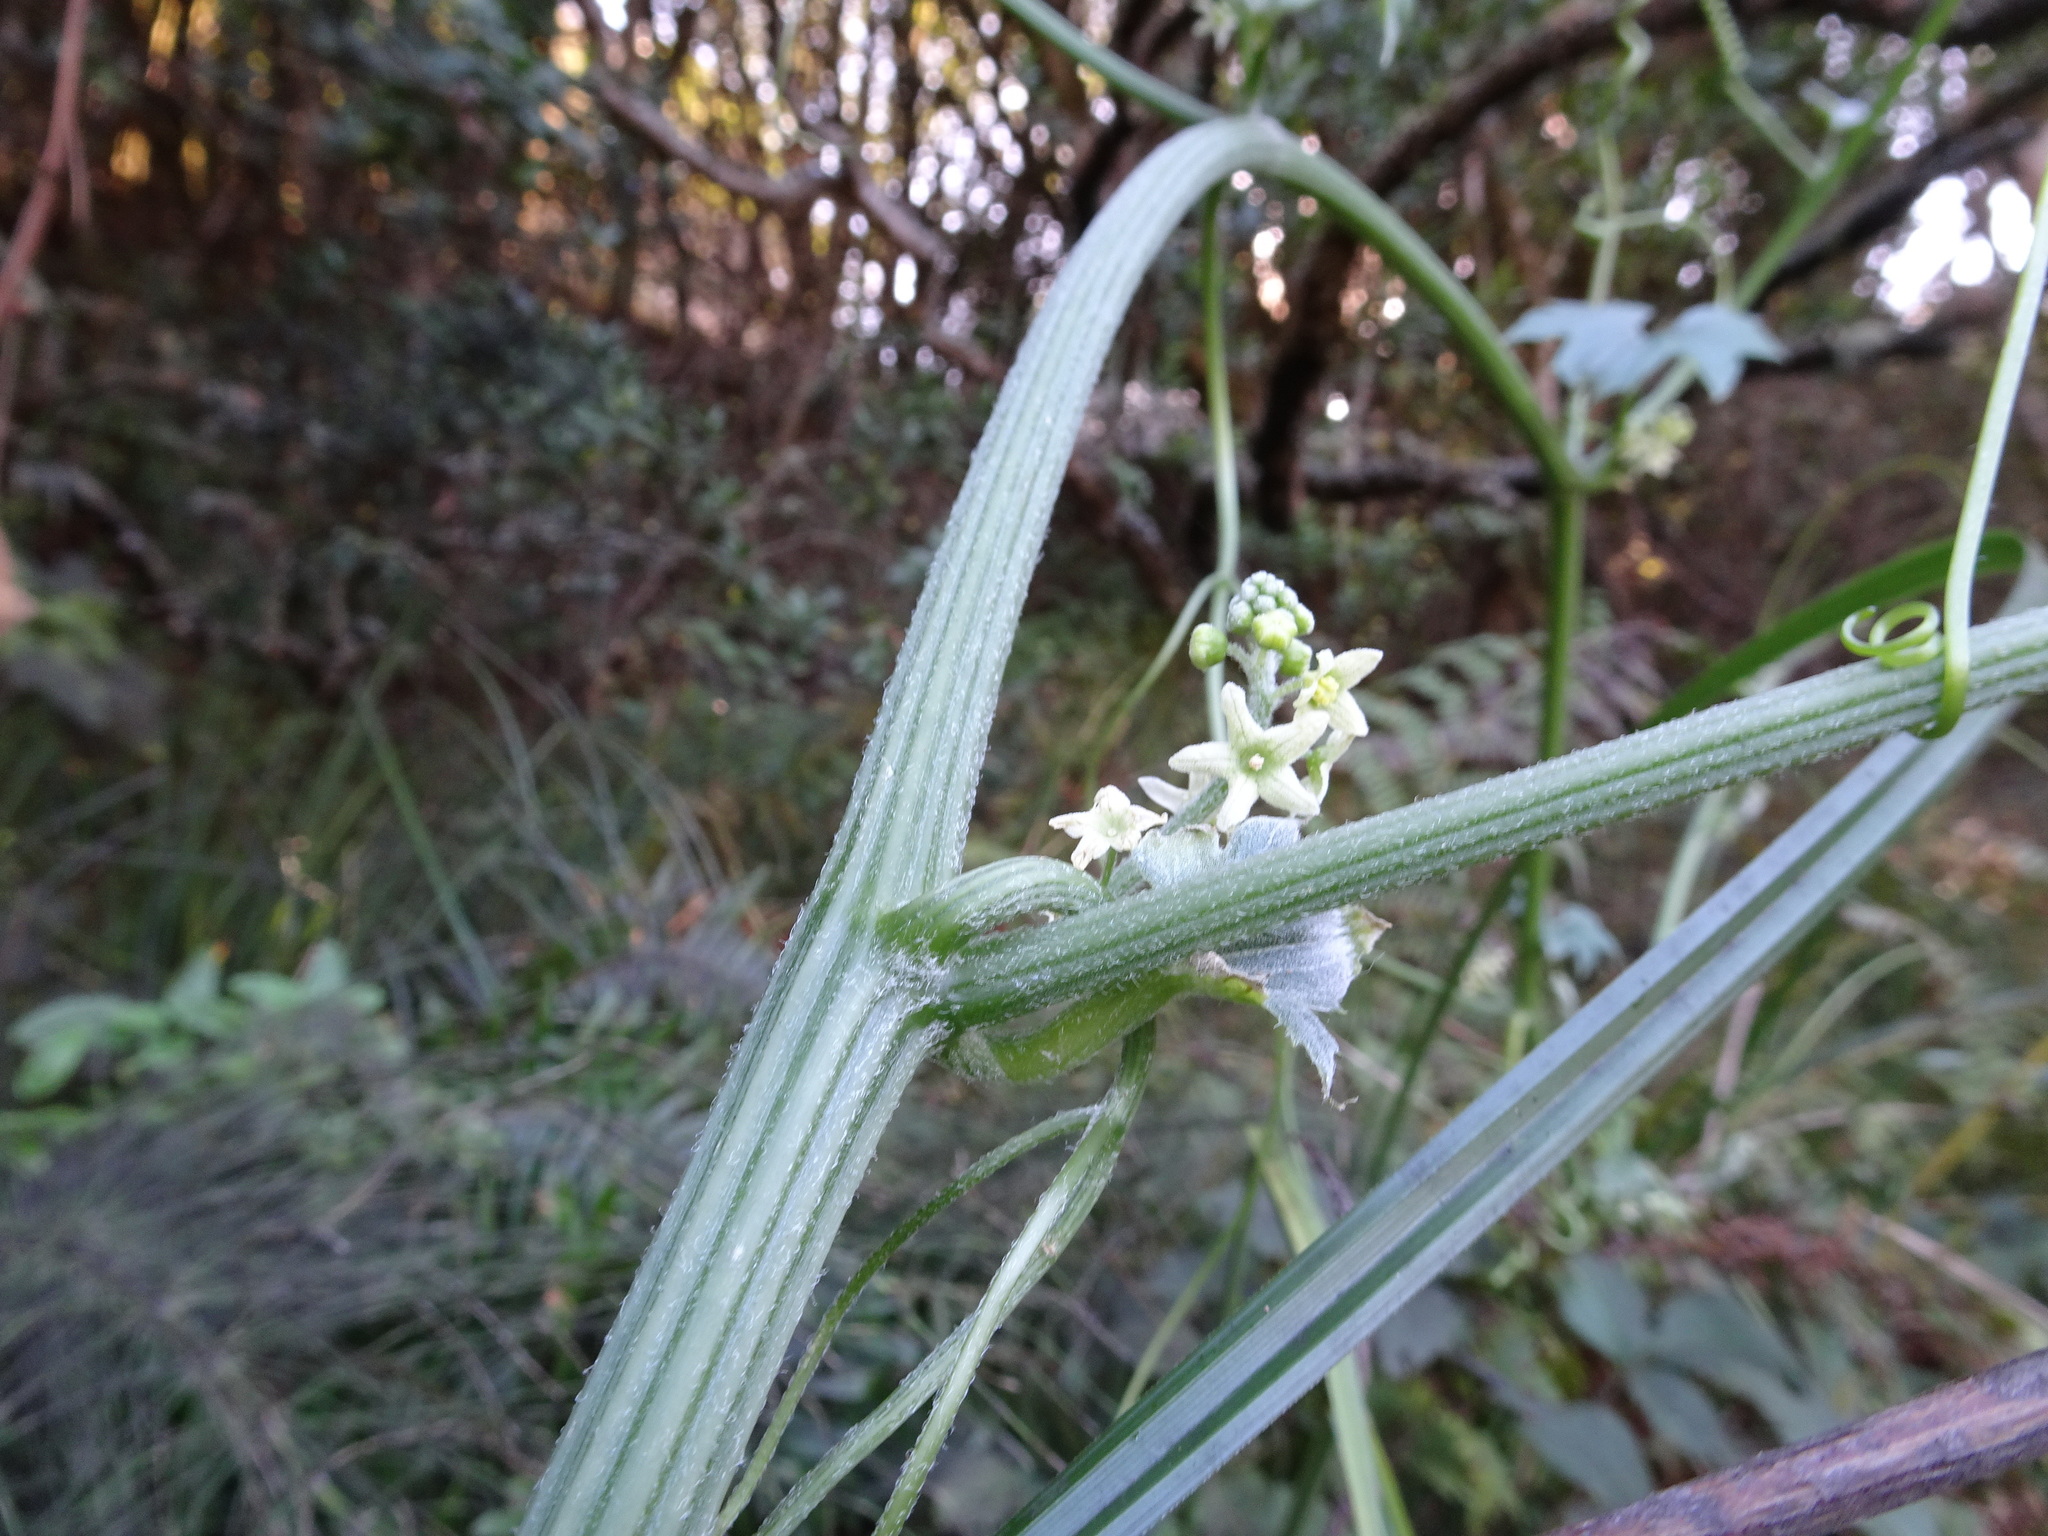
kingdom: Plantae
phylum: Tracheophyta
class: Magnoliopsida
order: Cucurbitales
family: Cucurbitaceae
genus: Marah
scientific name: Marah fabacea
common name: California manroot
